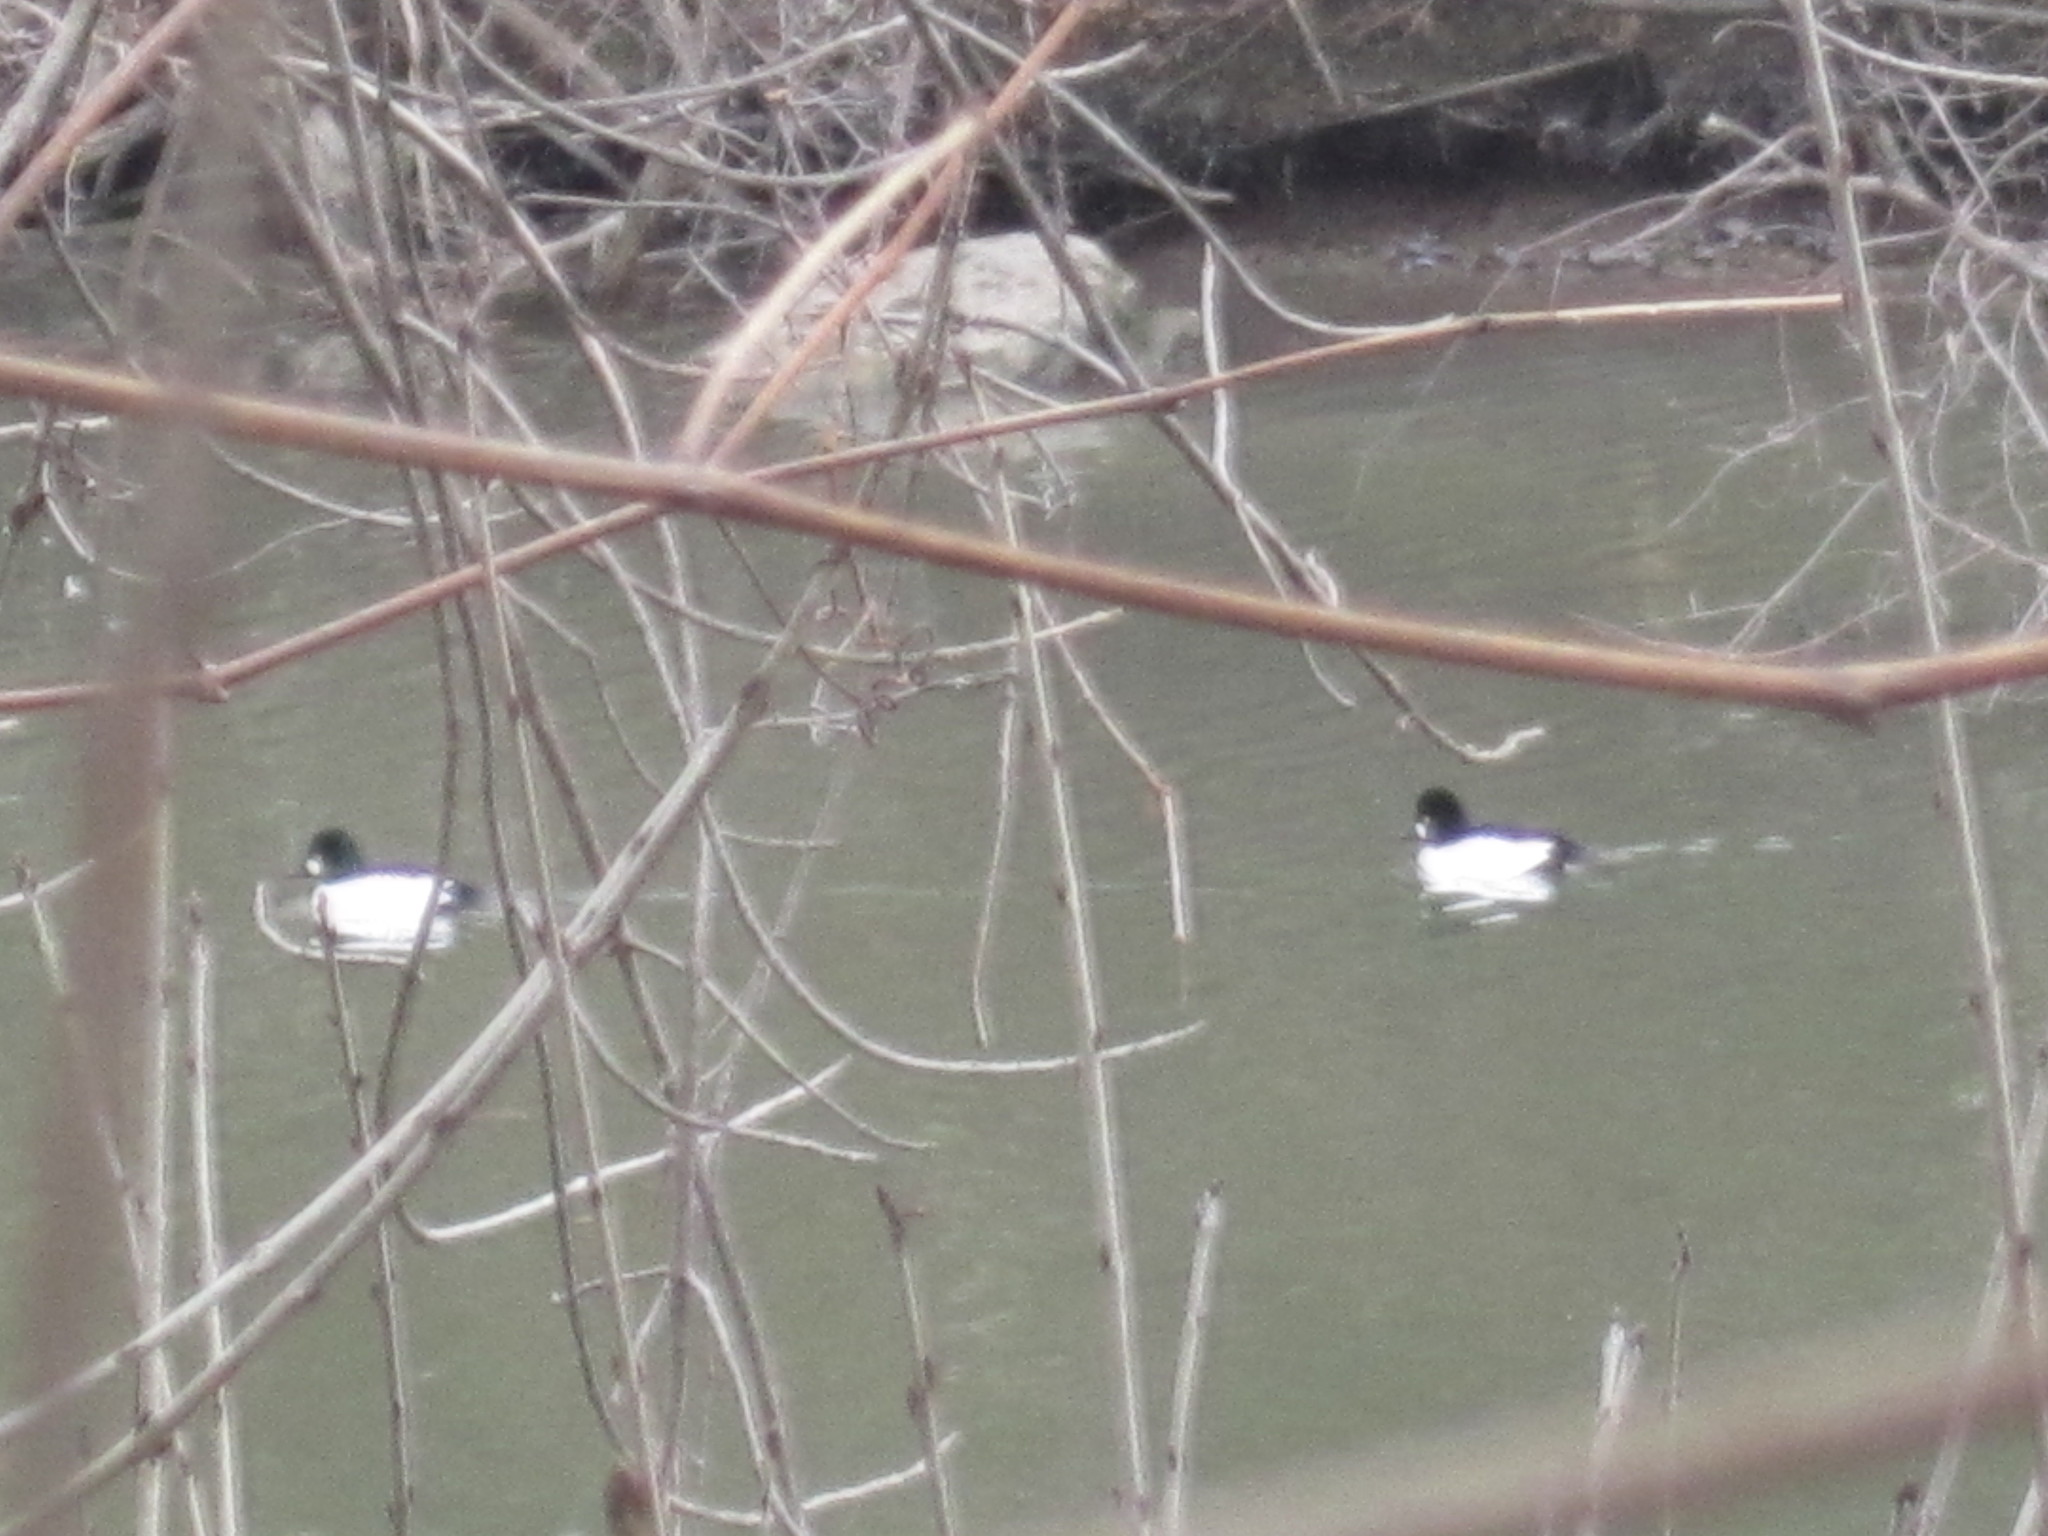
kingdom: Animalia
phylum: Chordata
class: Aves
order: Anseriformes
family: Anatidae
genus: Bucephala
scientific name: Bucephala clangula
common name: Common goldeneye
